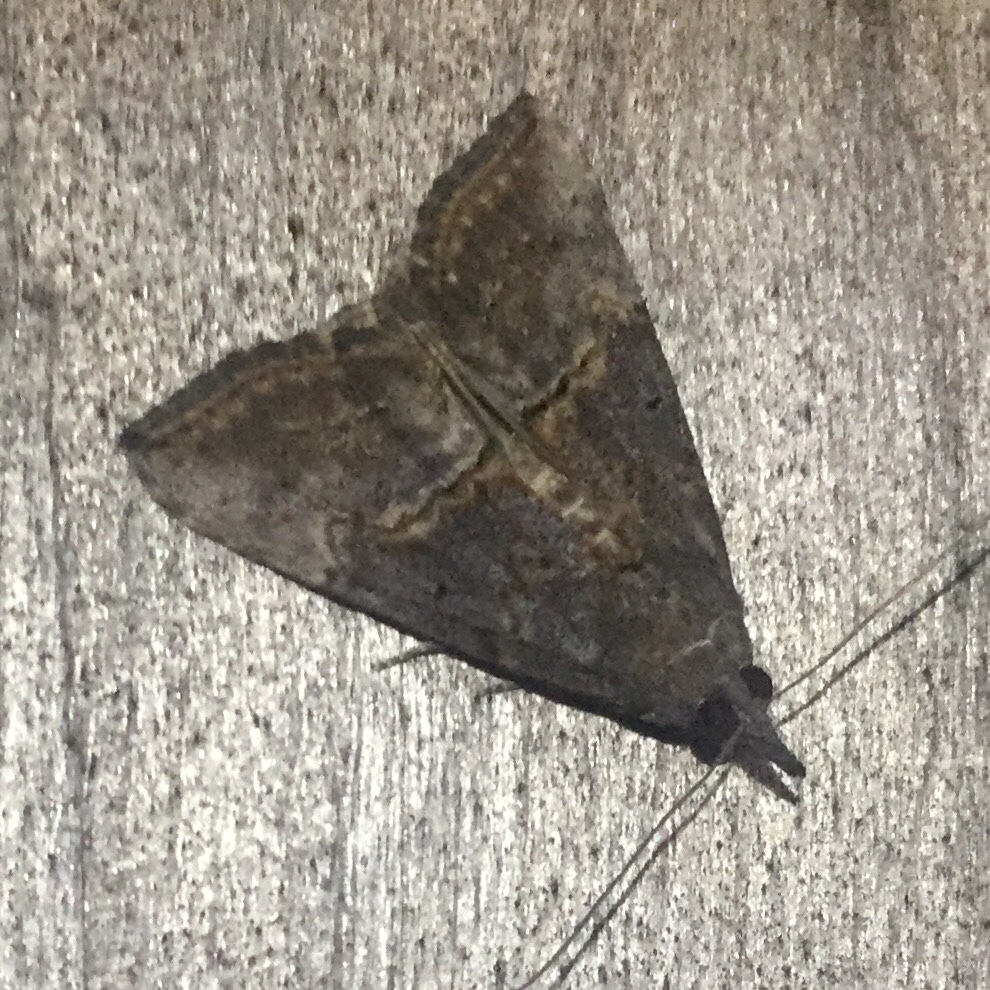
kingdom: Animalia
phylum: Arthropoda
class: Insecta
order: Lepidoptera
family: Erebidae
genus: Hypena
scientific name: Hypena scabra
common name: Green cloverworm
